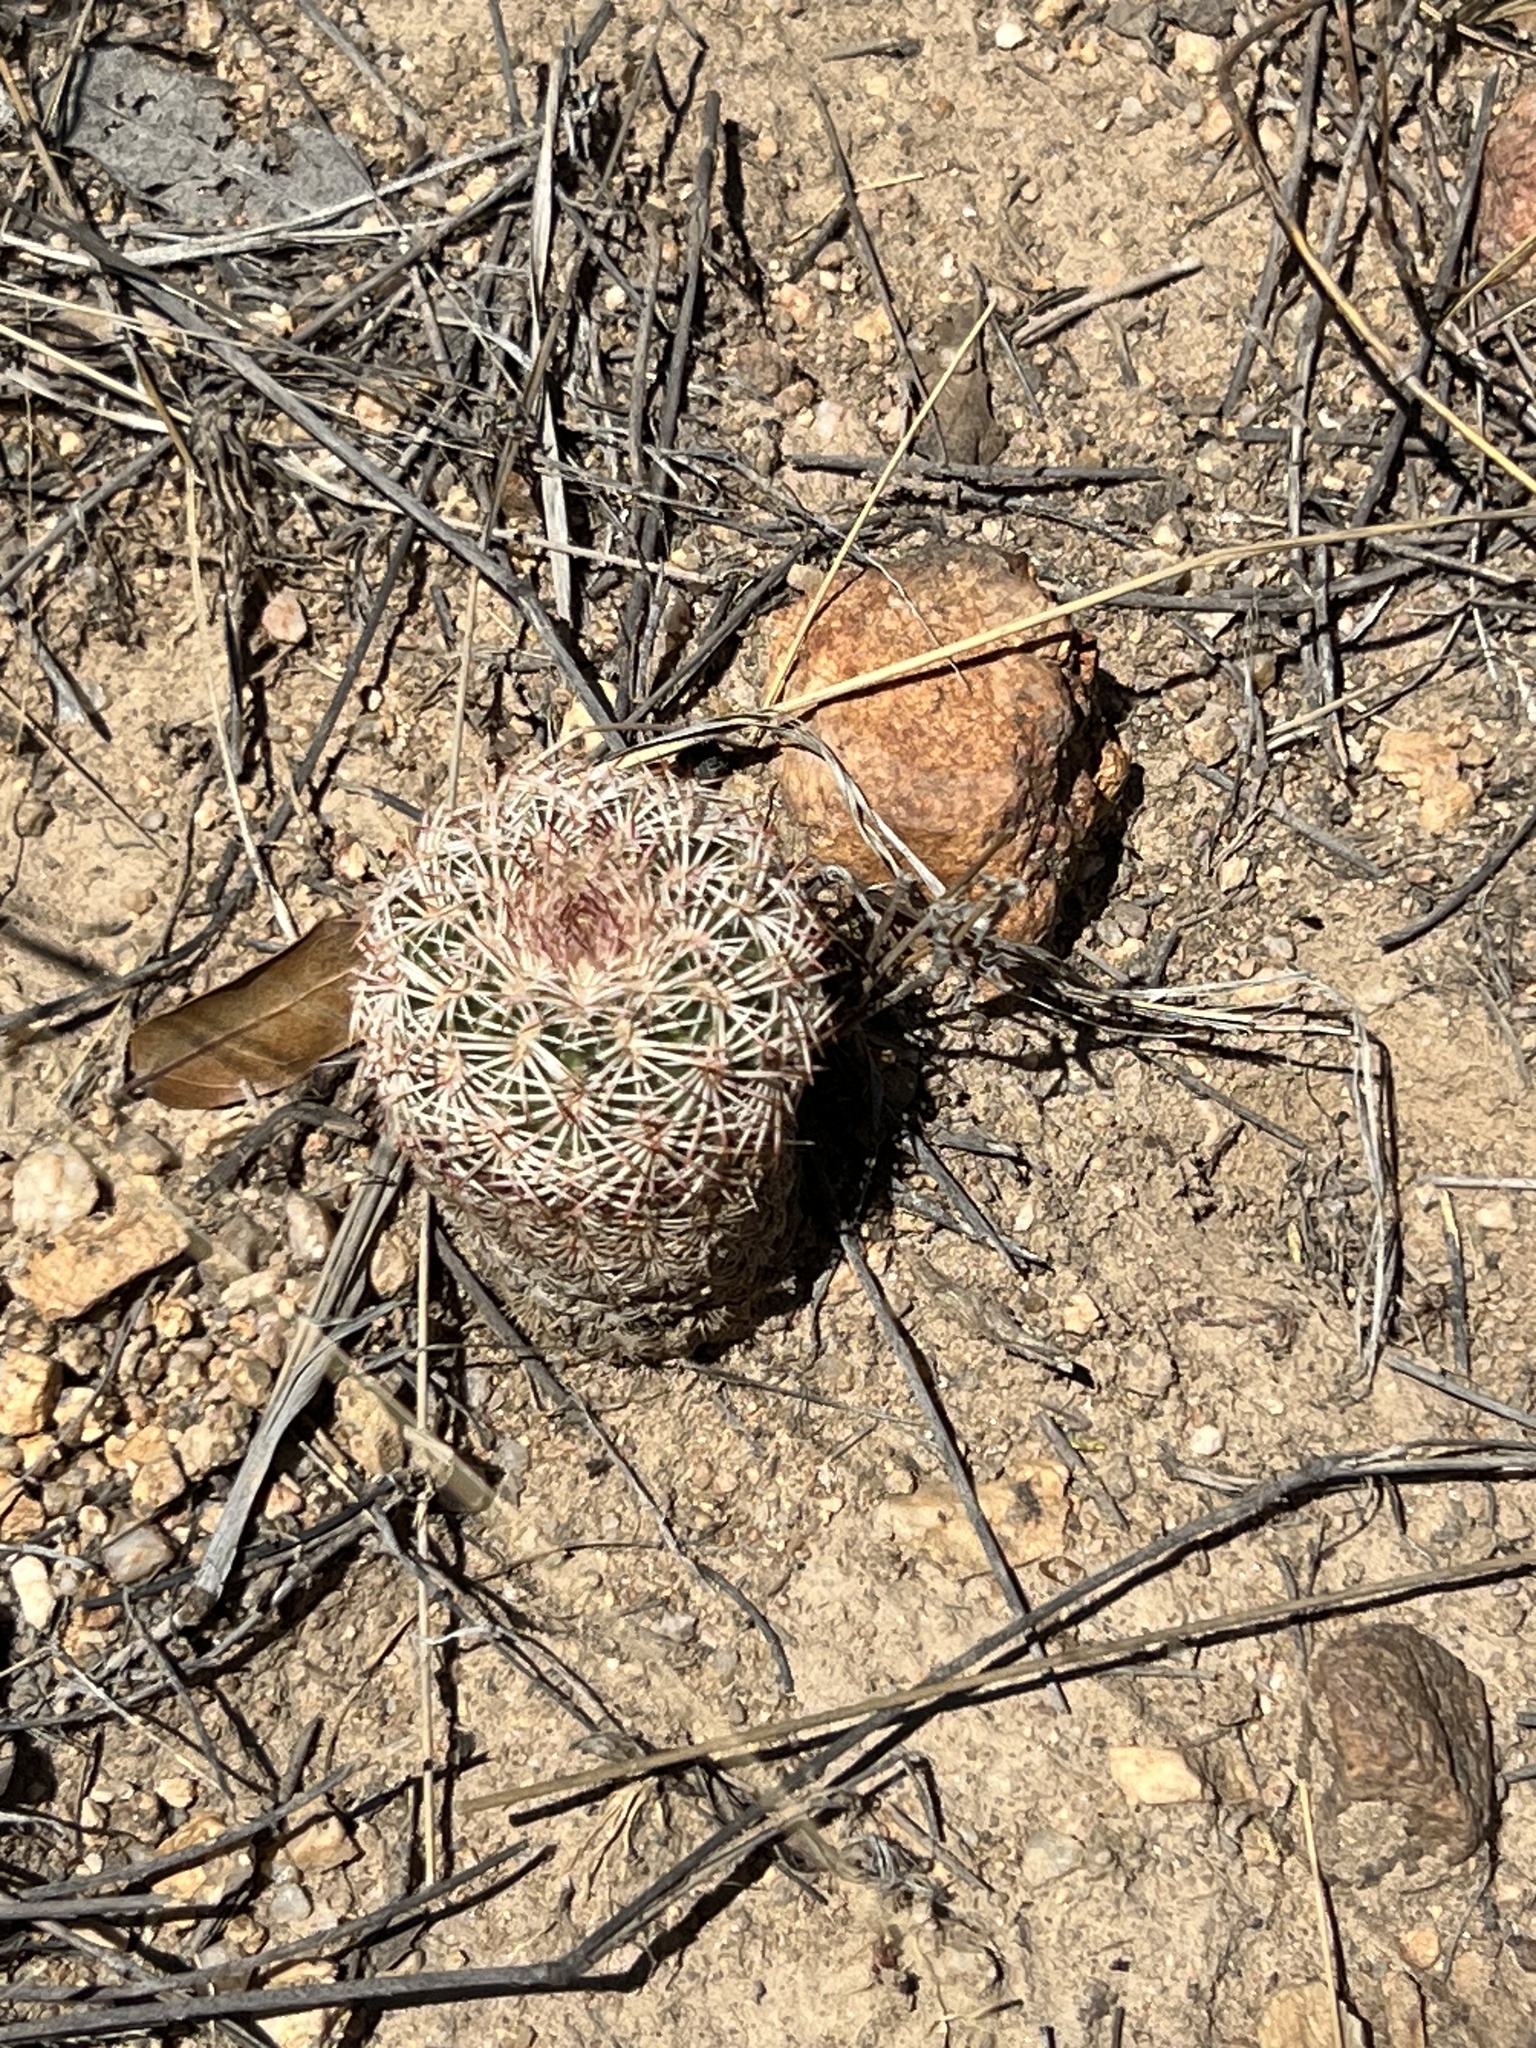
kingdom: Plantae
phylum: Tracheophyta
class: Magnoliopsida
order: Caryophyllales
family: Cactaceae
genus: Echinocereus
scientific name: Echinocereus rigidissimus
